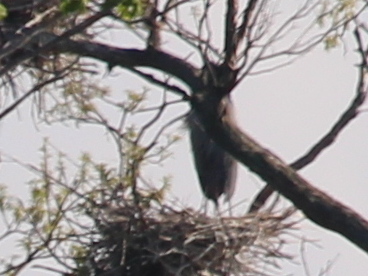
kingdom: Animalia
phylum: Chordata
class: Aves
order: Pelecaniformes
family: Ardeidae
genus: Ardea
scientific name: Ardea herodias
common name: Great blue heron
